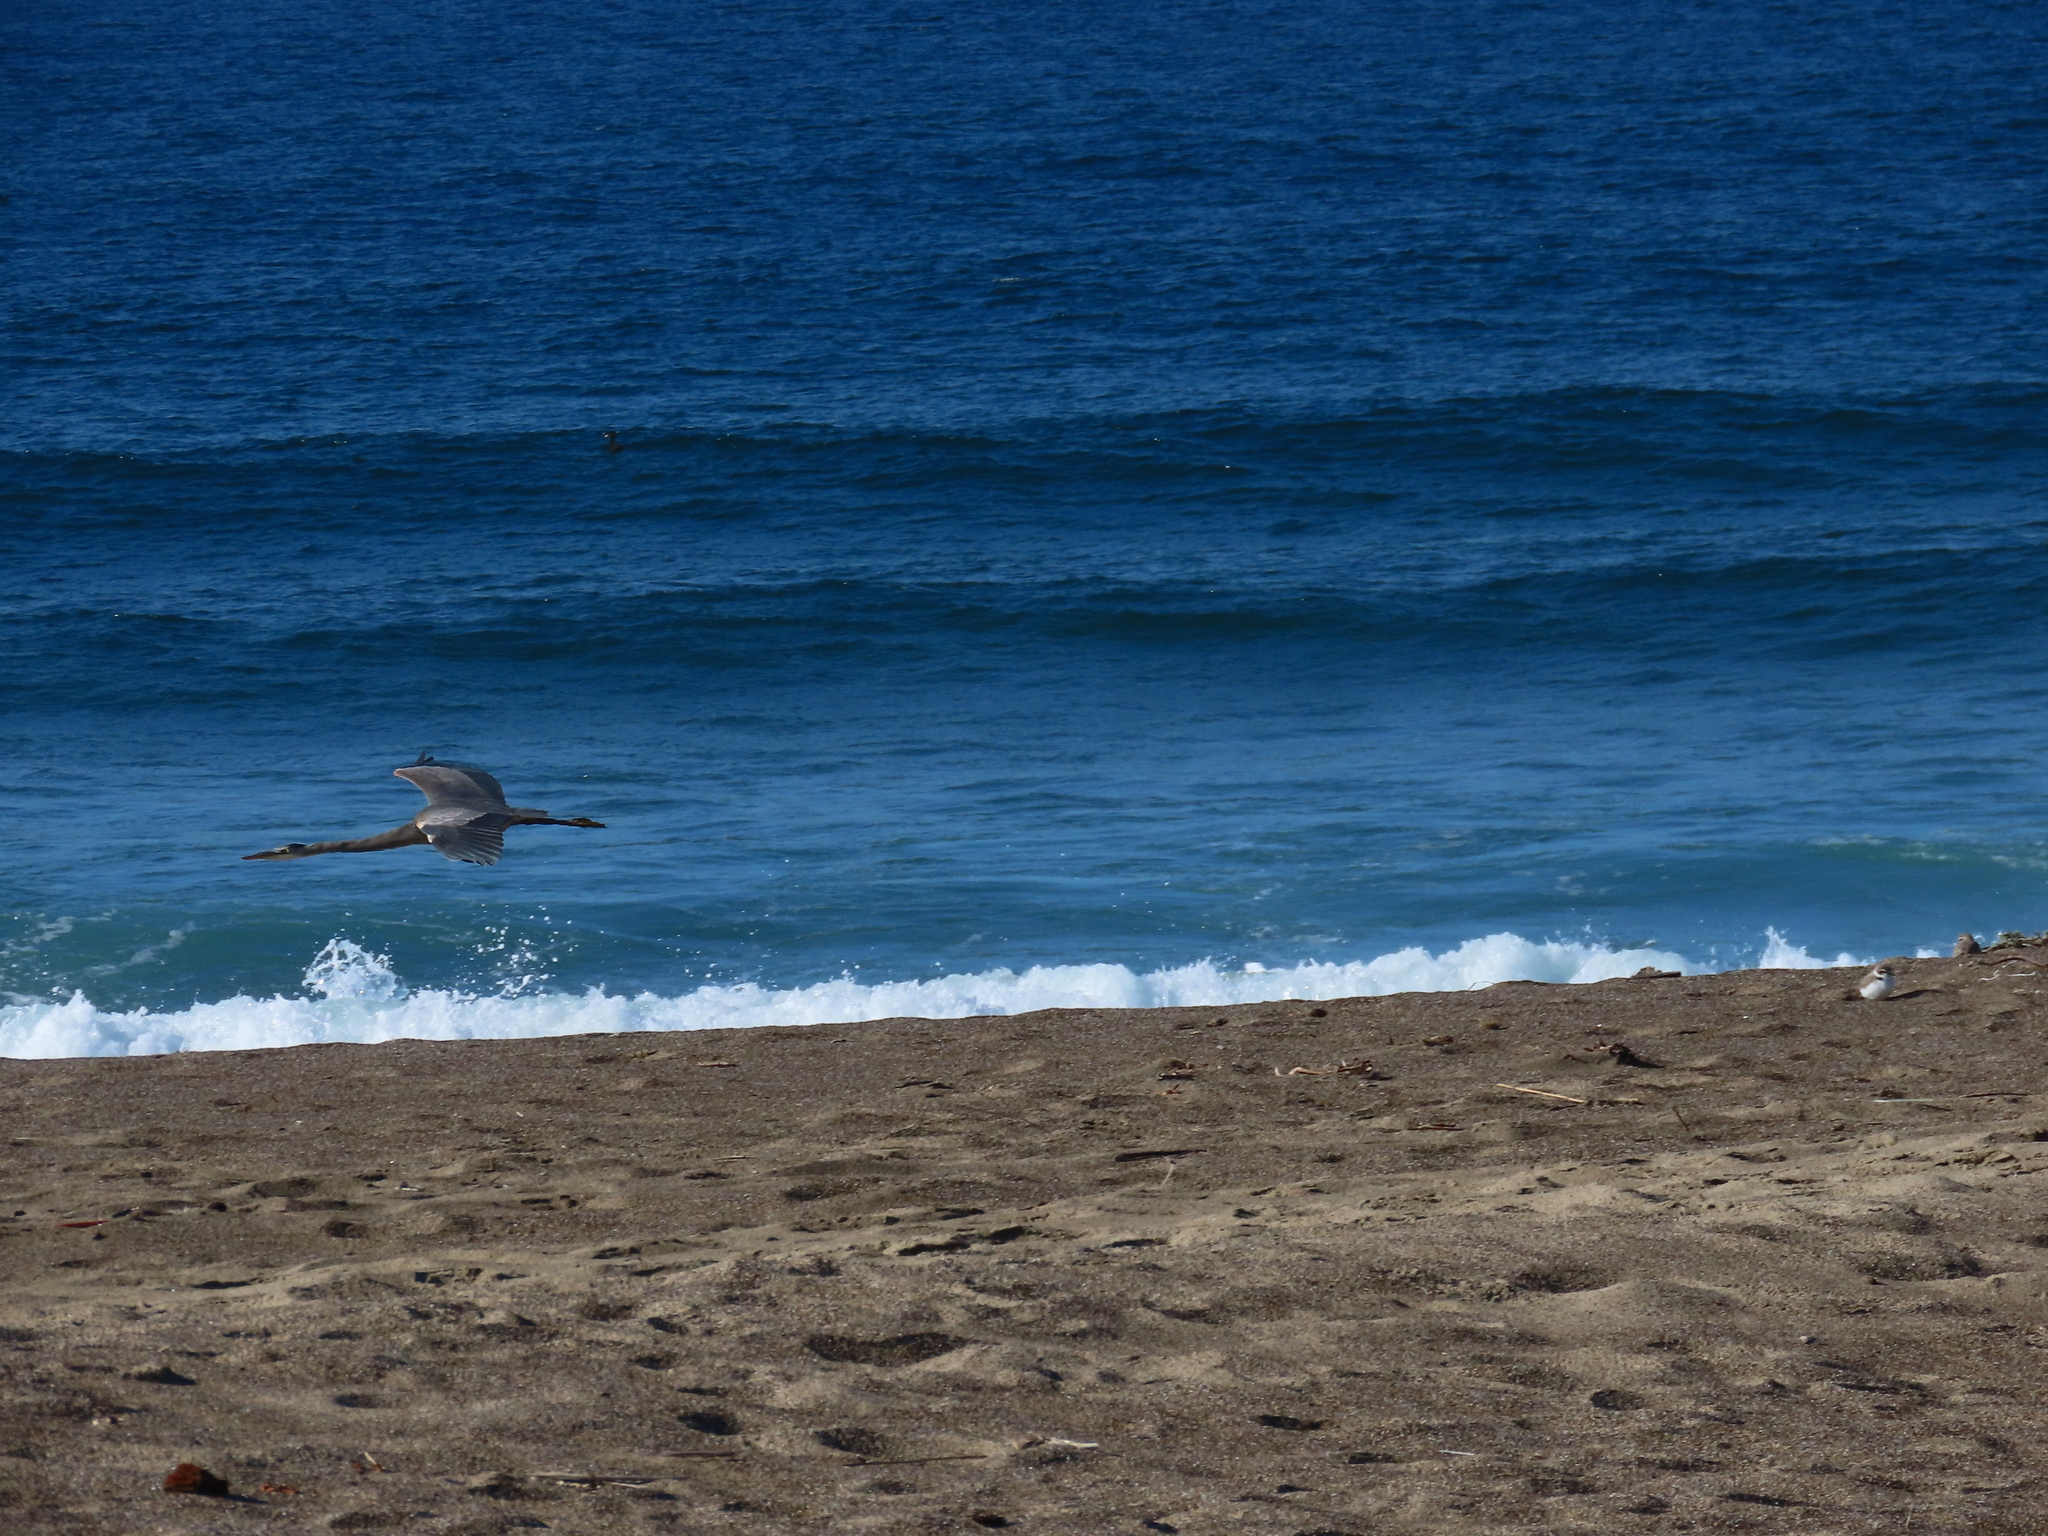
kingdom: Animalia
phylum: Chordata
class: Aves
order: Pelecaniformes
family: Ardeidae
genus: Ardea
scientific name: Ardea herodias
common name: Great blue heron
